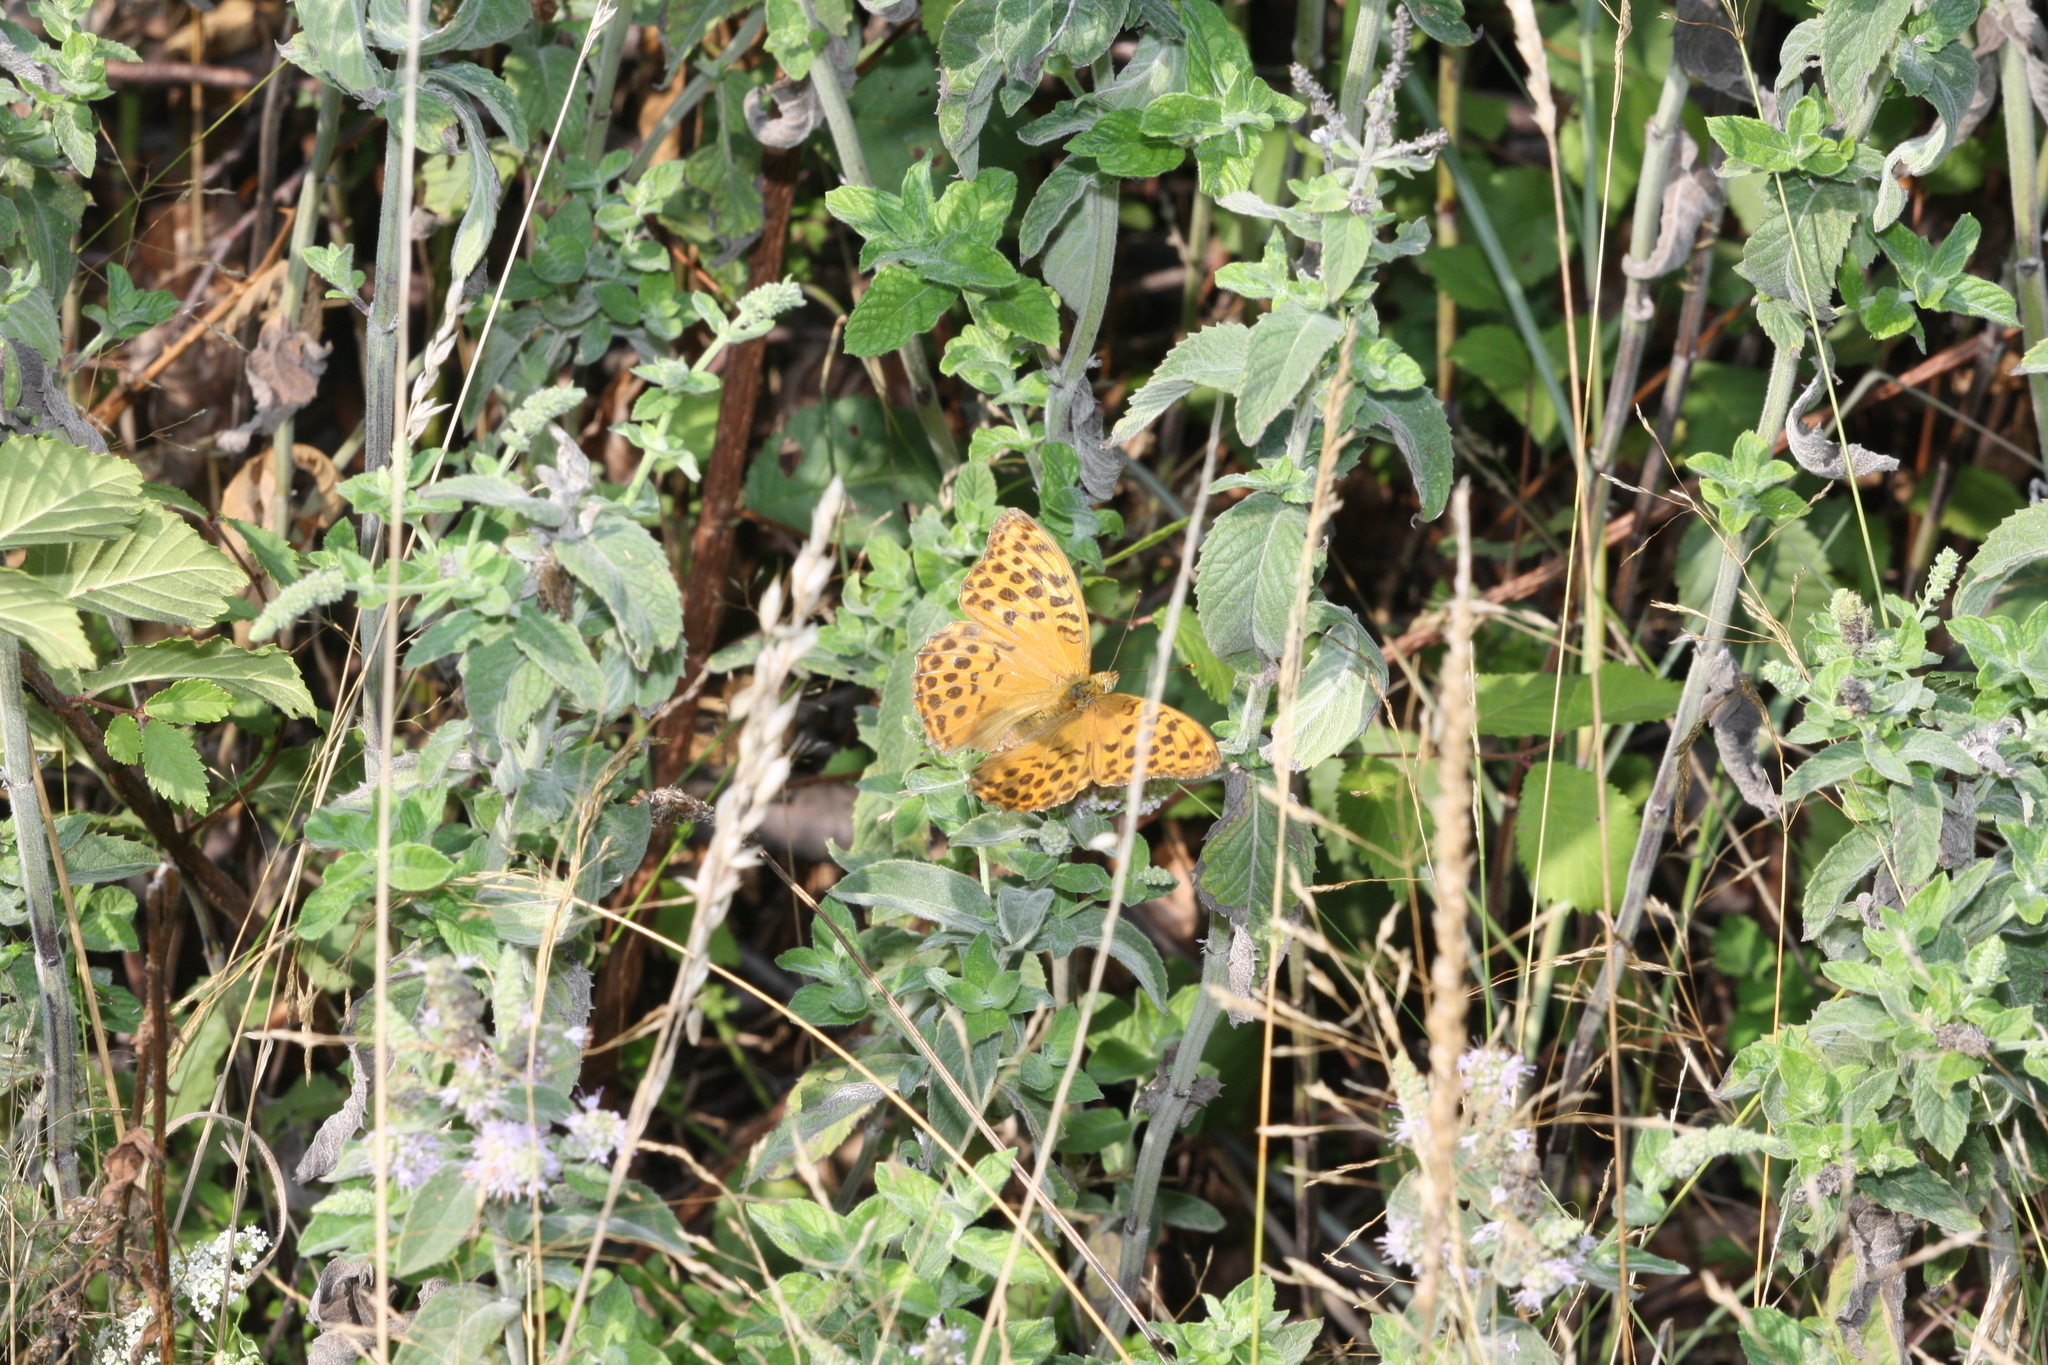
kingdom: Animalia
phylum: Arthropoda
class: Insecta
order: Lepidoptera
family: Nymphalidae
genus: Argynnis
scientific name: Argynnis paphia
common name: Silver-washed fritillary
